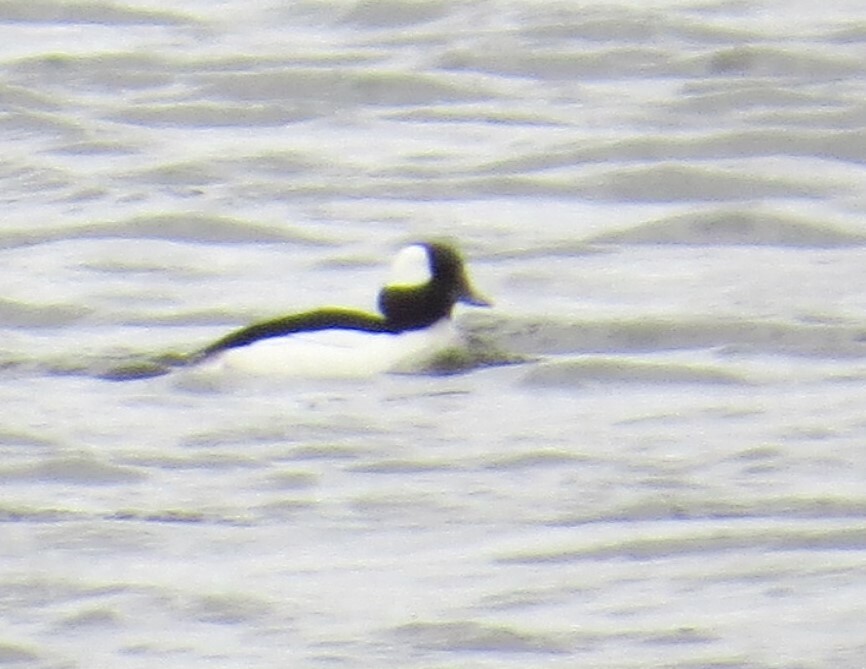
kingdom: Animalia
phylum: Chordata
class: Aves
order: Anseriformes
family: Anatidae
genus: Bucephala
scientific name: Bucephala albeola
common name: Bufflehead
